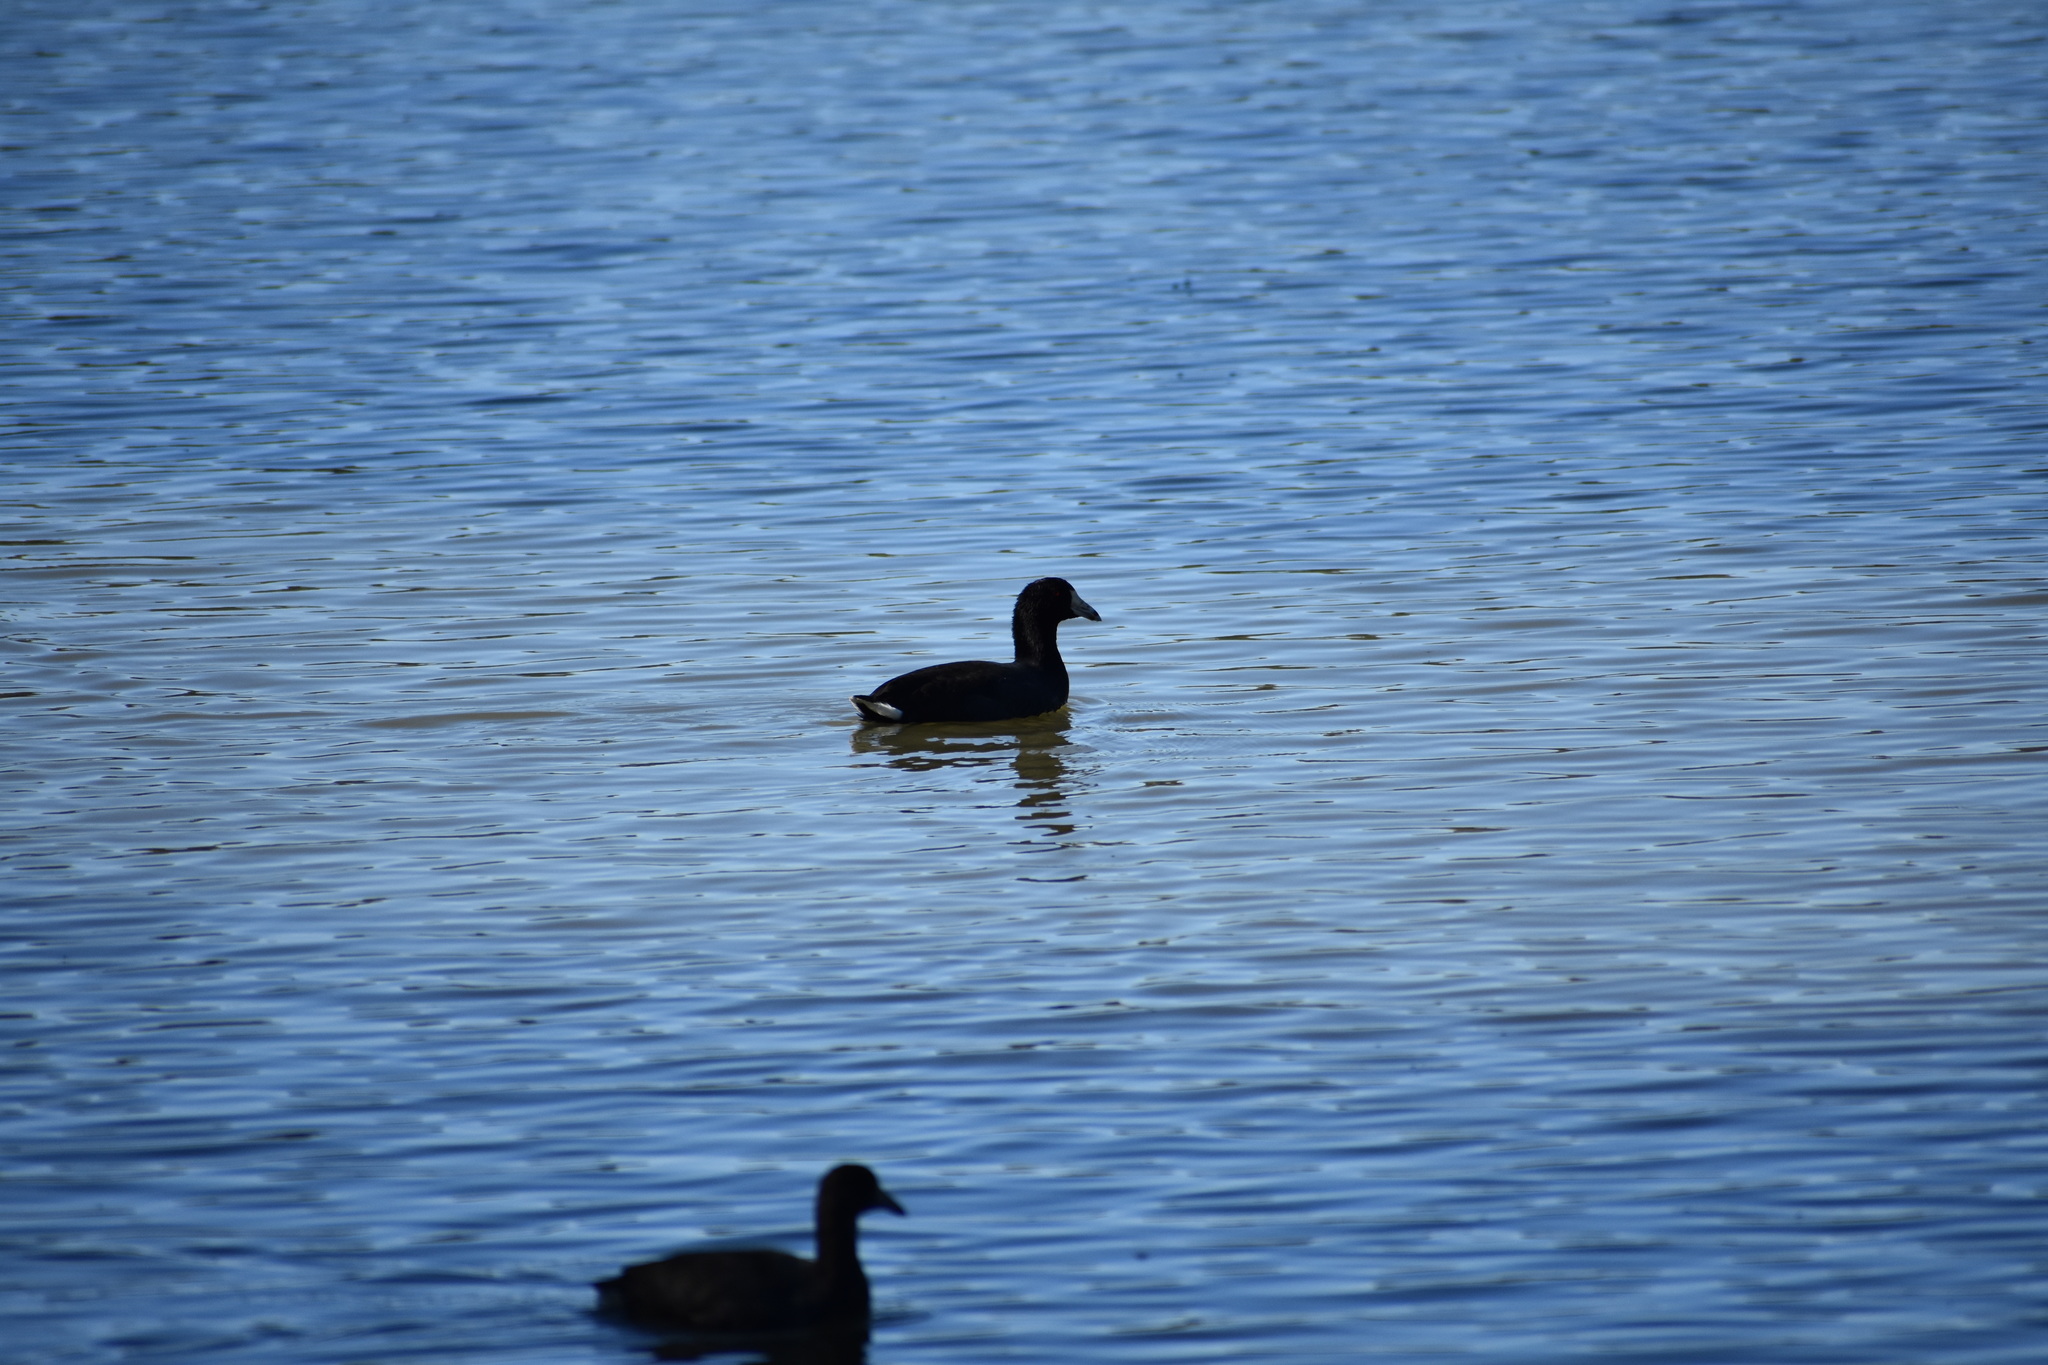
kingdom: Animalia
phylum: Chordata
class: Aves
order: Gruiformes
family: Rallidae
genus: Fulica
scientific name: Fulica americana
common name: American coot
